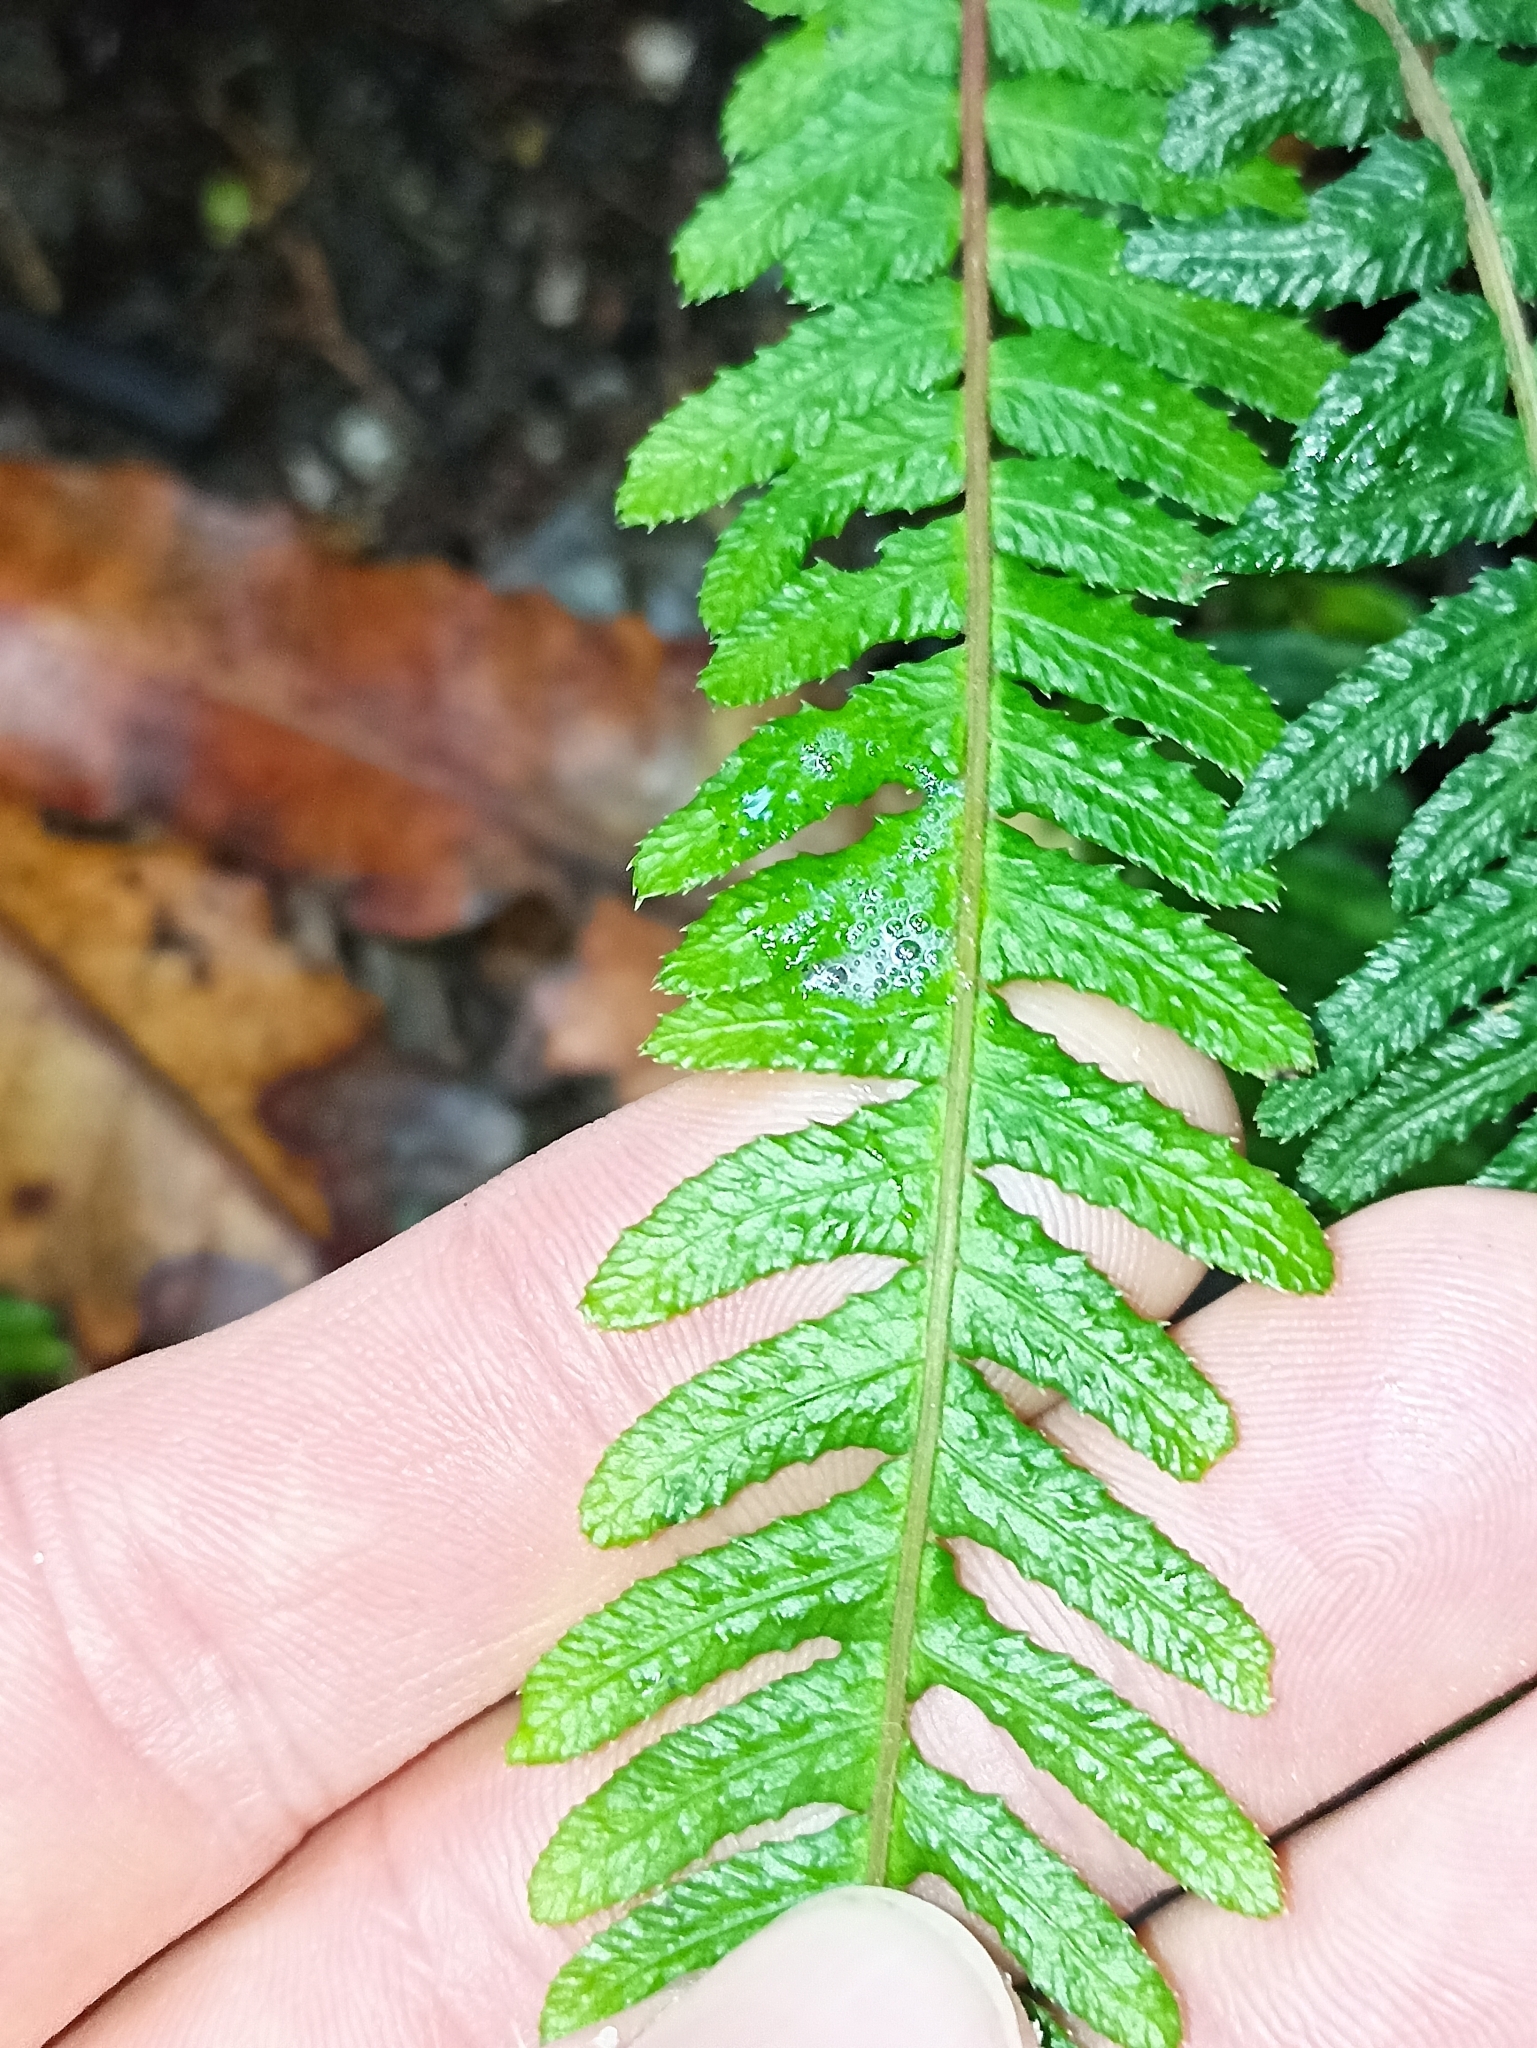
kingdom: Plantae
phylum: Tracheophyta
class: Polypodiopsida
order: Polypodiales
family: Blechnaceae
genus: Doodia
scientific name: Doodia australis
